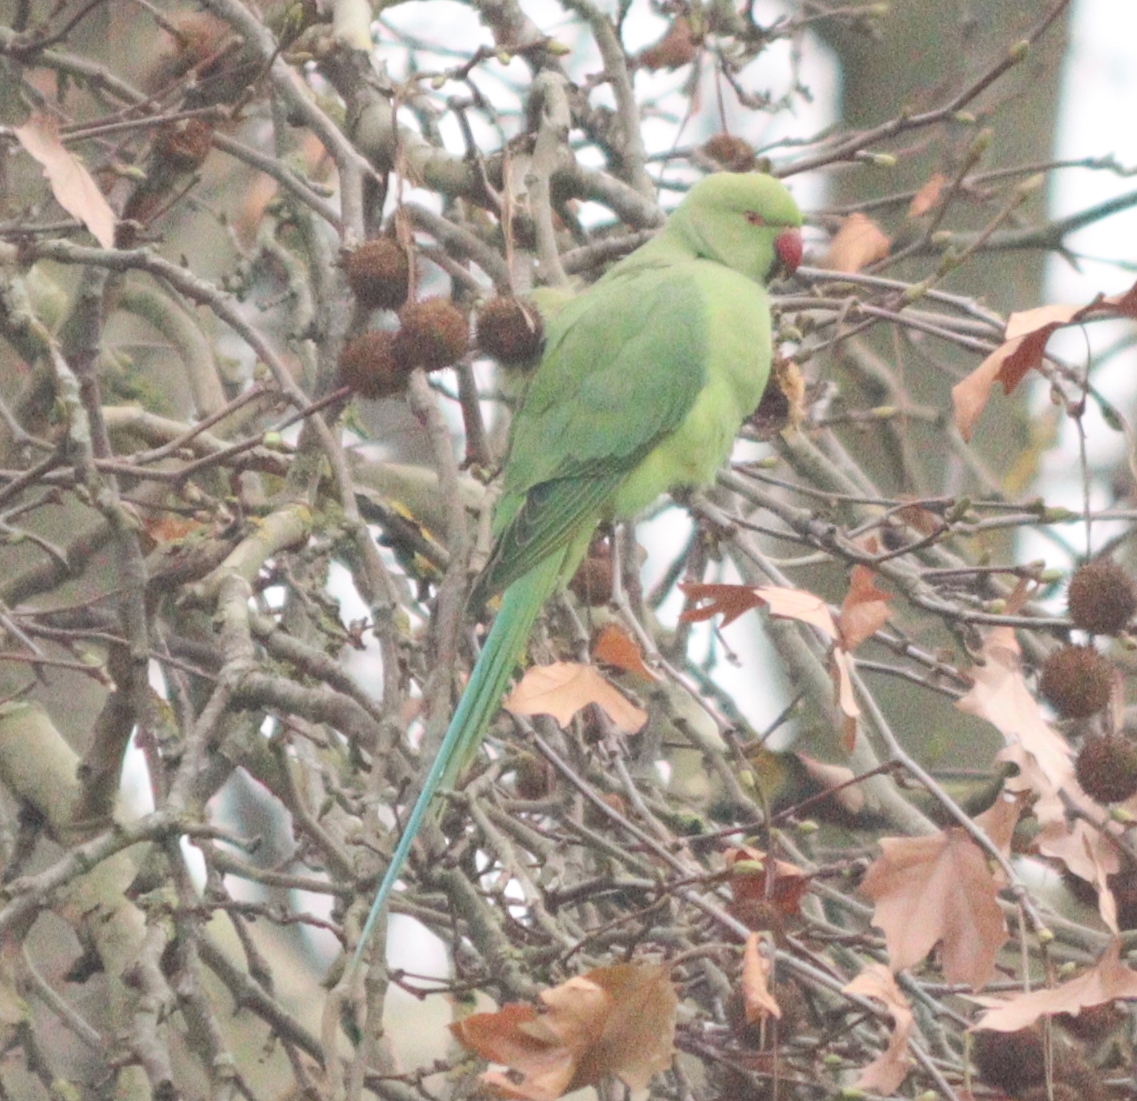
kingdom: Animalia
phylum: Chordata
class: Aves
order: Psittaciformes
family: Psittacidae
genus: Psittacula
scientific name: Psittacula krameri
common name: Rose-ringed parakeet
